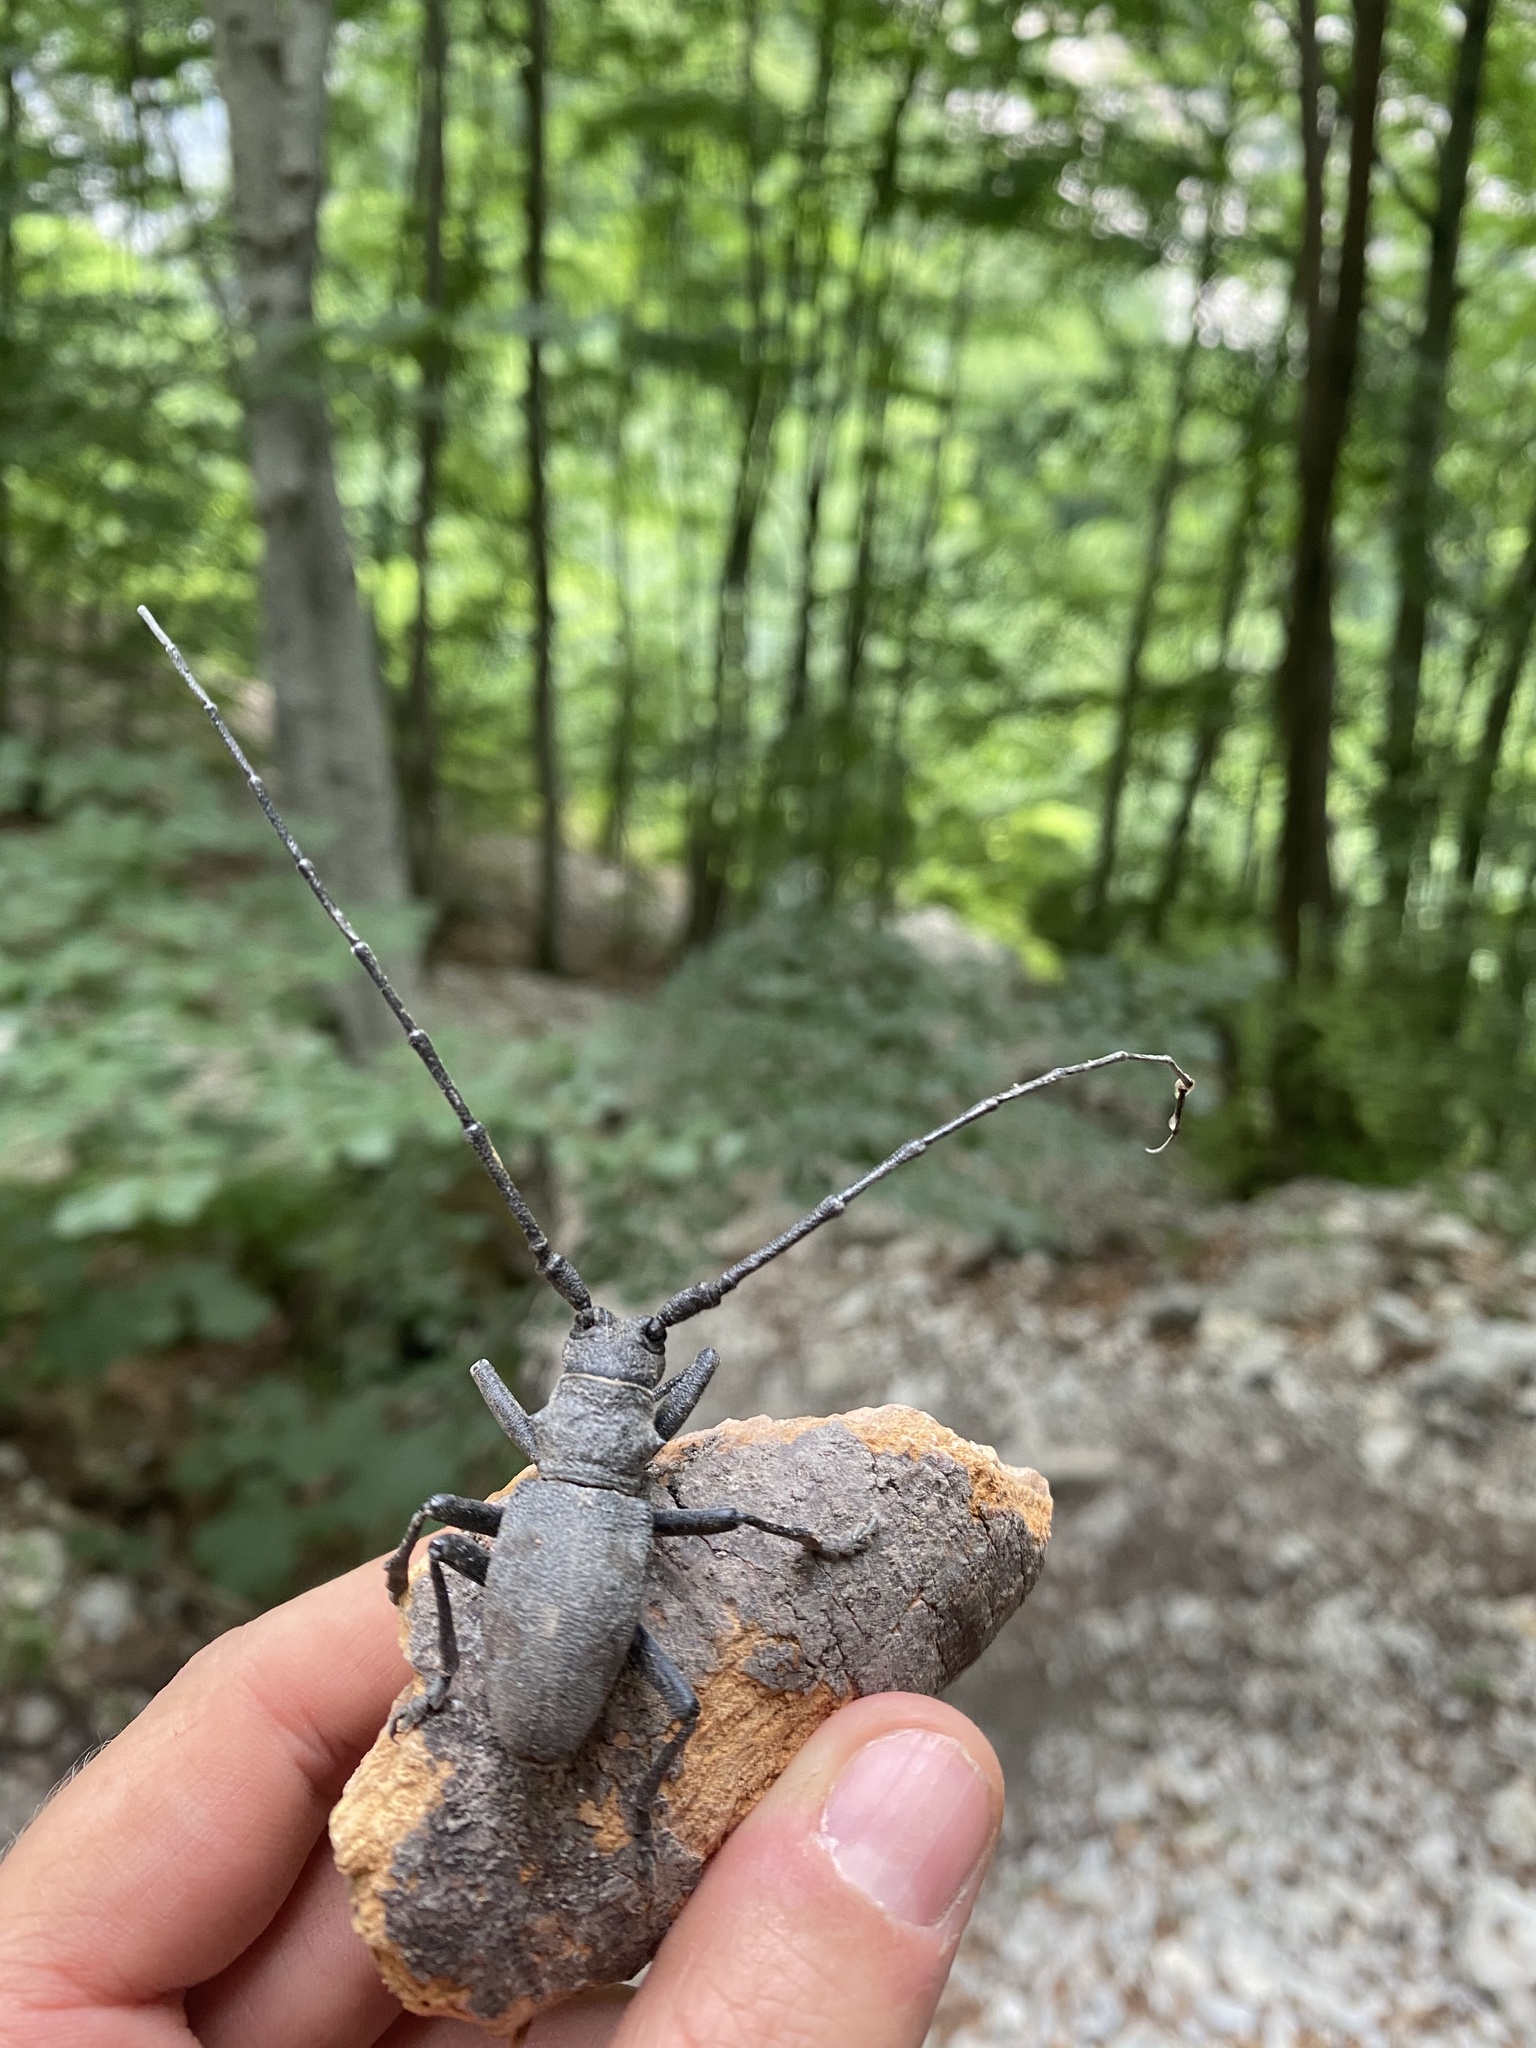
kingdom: Animalia
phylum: Arthropoda
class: Insecta
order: Coleoptera
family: Cerambycidae
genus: Morimus
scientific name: Morimus asper
